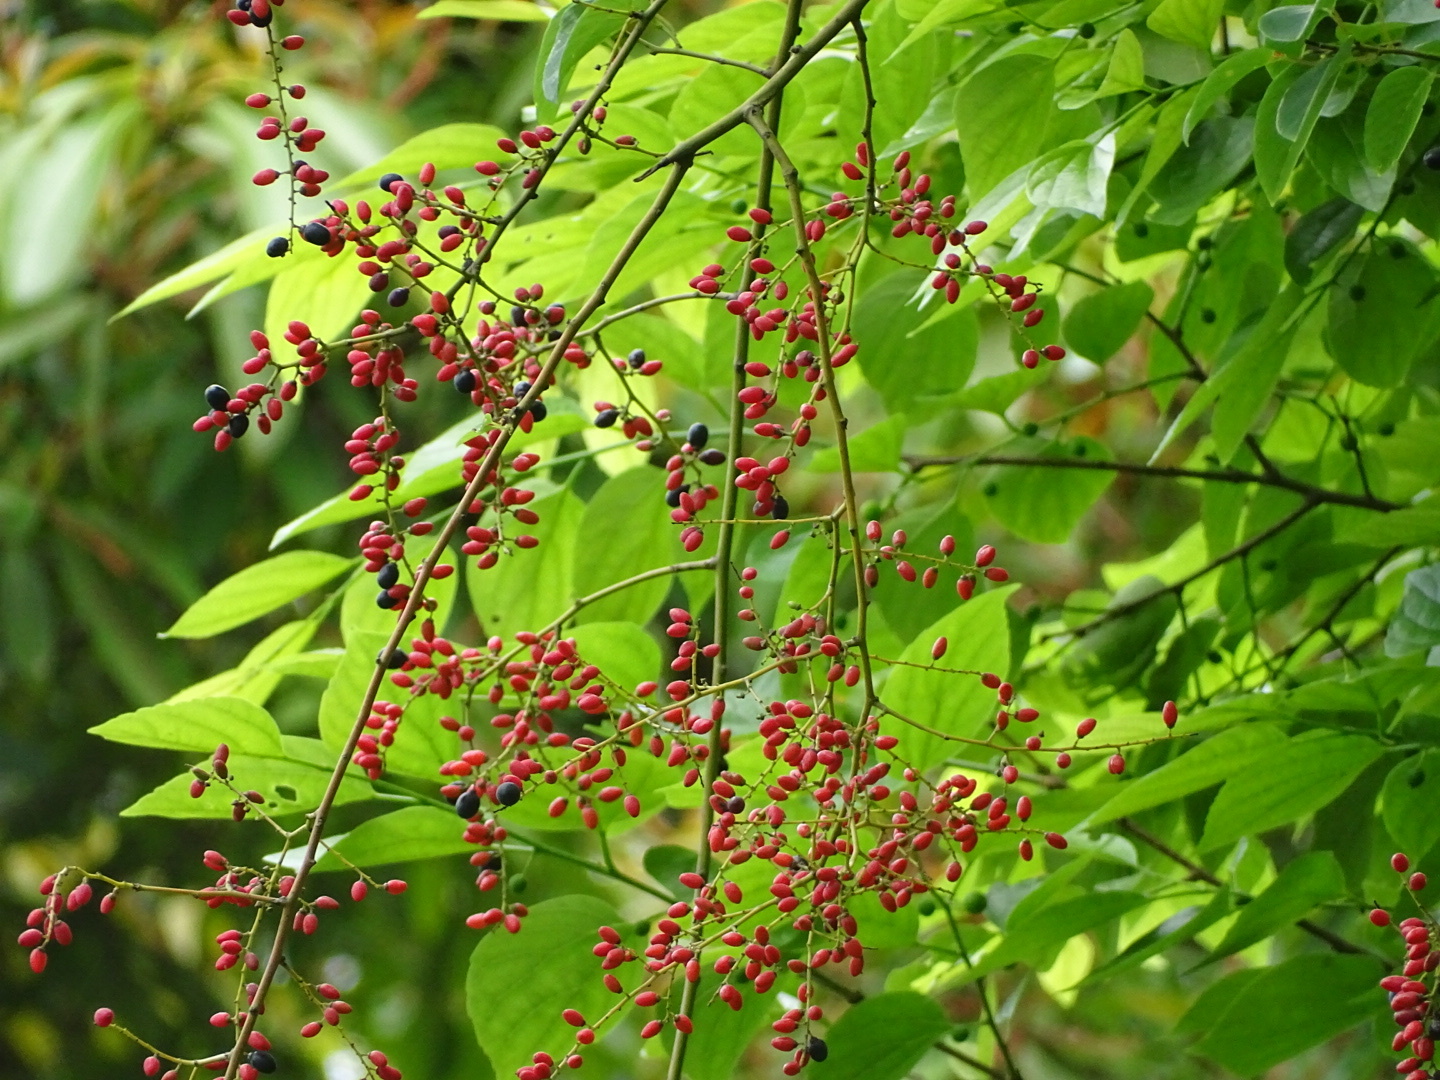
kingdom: Plantae
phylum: Tracheophyta
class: Magnoliopsida
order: Rosales
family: Rhamnaceae
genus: Berchemia
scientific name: Berchemia floribunda
